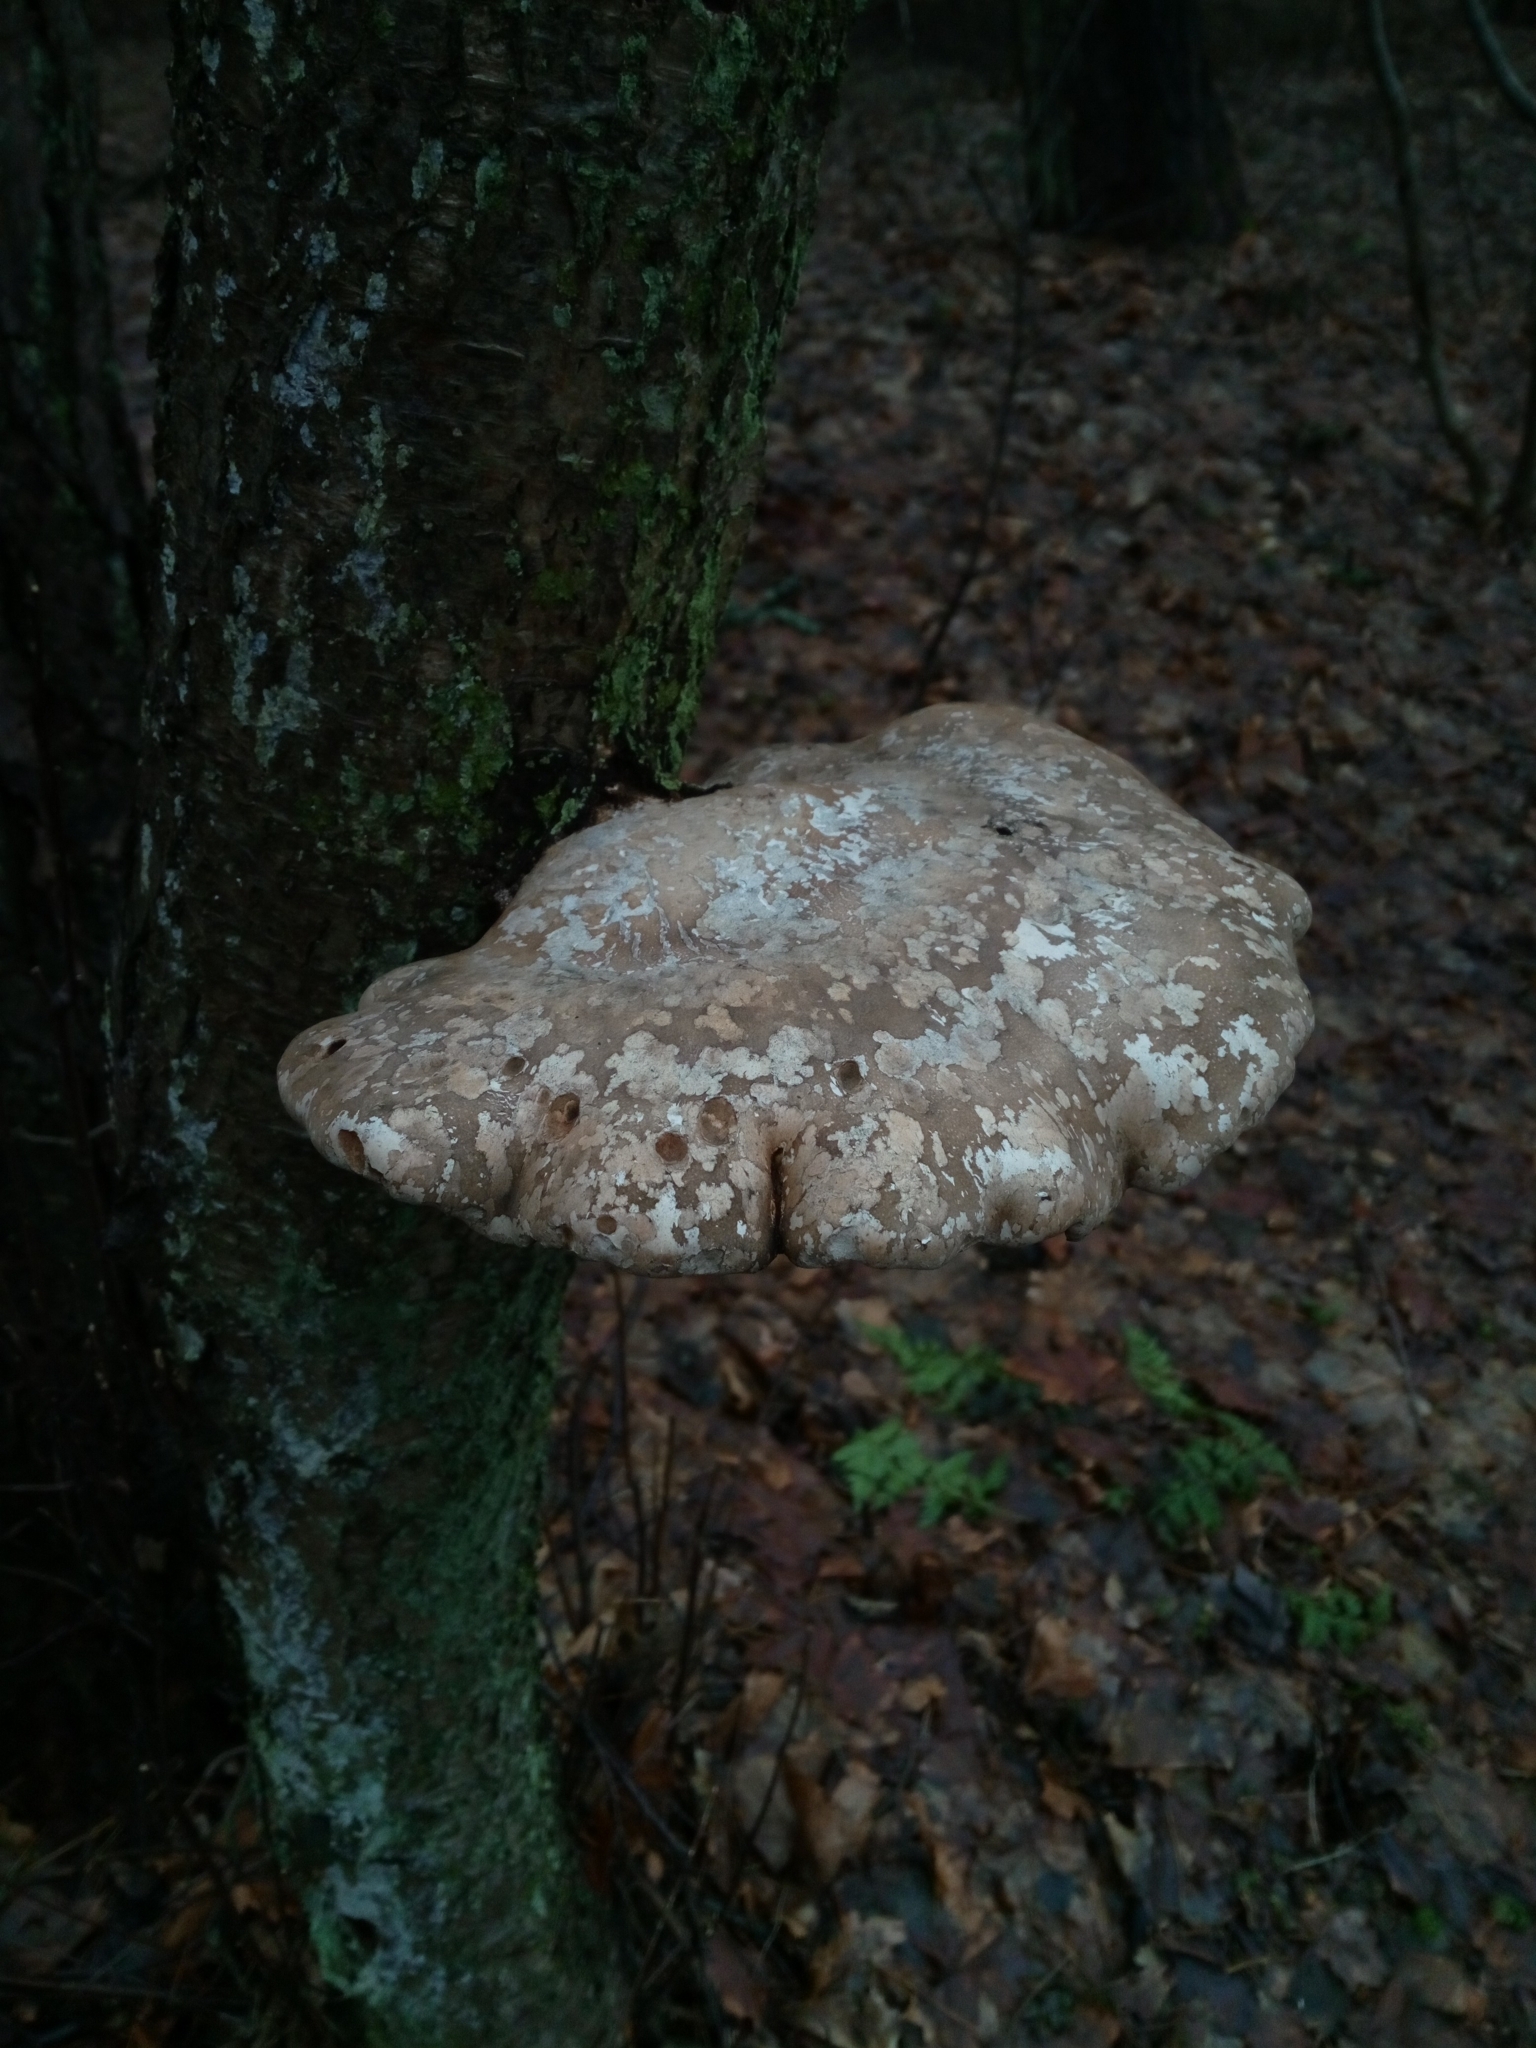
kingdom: Fungi
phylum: Basidiomycota
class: Agaricomycetes
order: Polyporales
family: Fomitopsidaceae
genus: Fomitopsis
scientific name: Fomitopsis betulina
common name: Birch polypore
